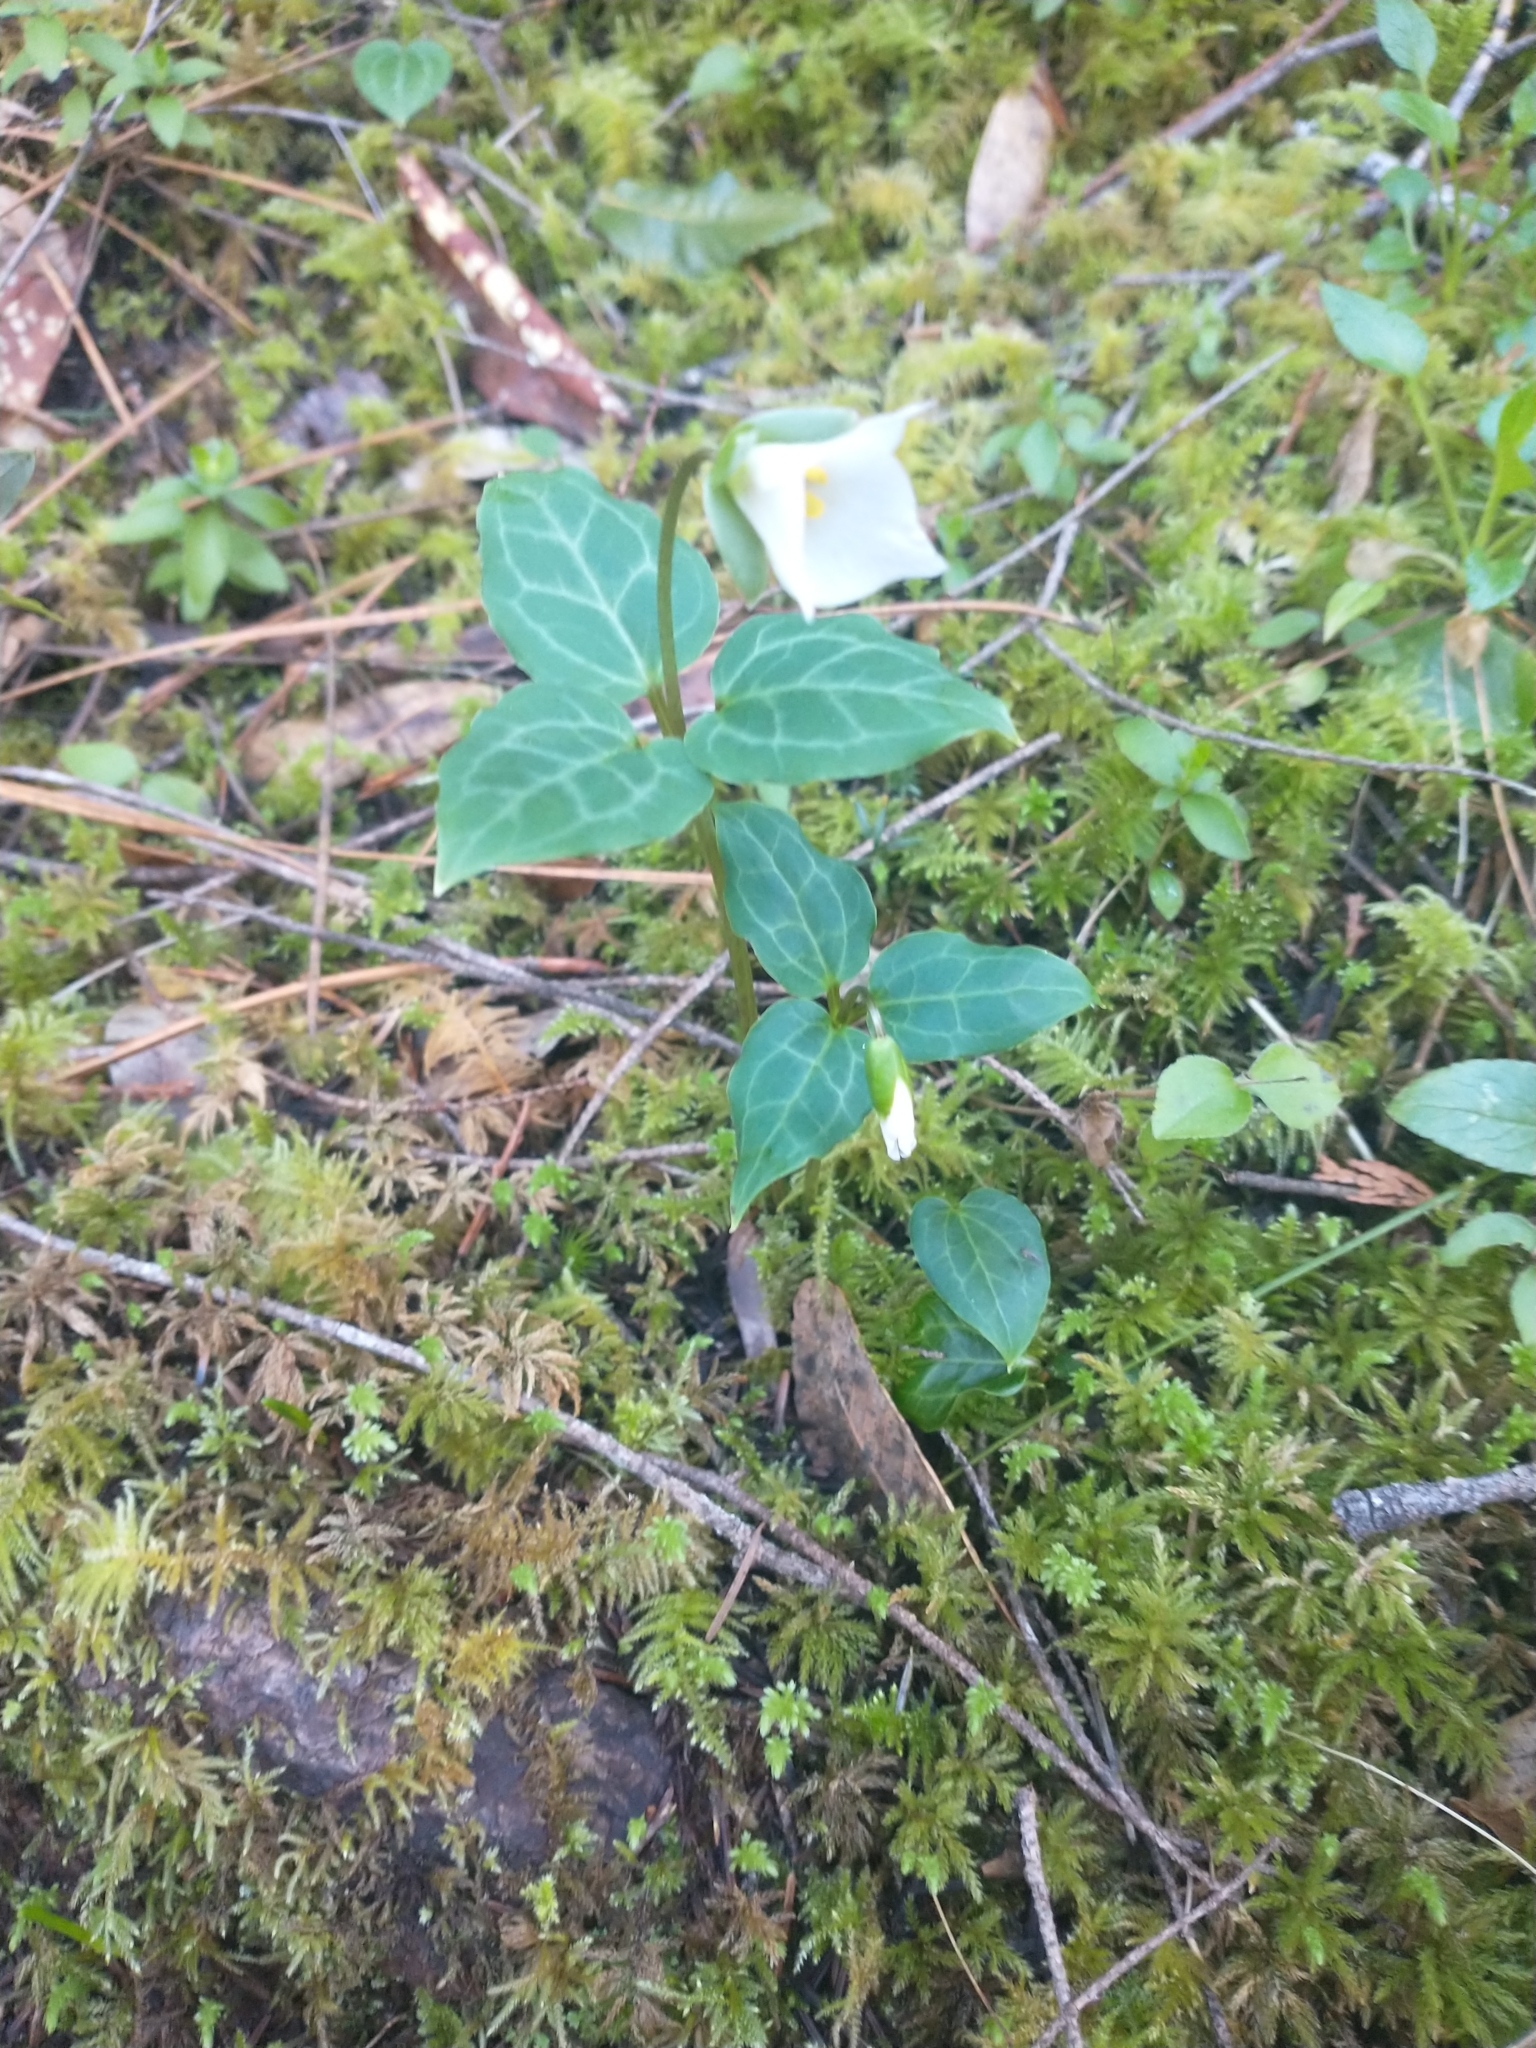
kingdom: Plantae
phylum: Tracheophyta
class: Liliopsida
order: Liliales
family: Melanthiaceae
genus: Pseudotrillium
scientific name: Pseudotrillium rivale
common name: Brook wakerobin
